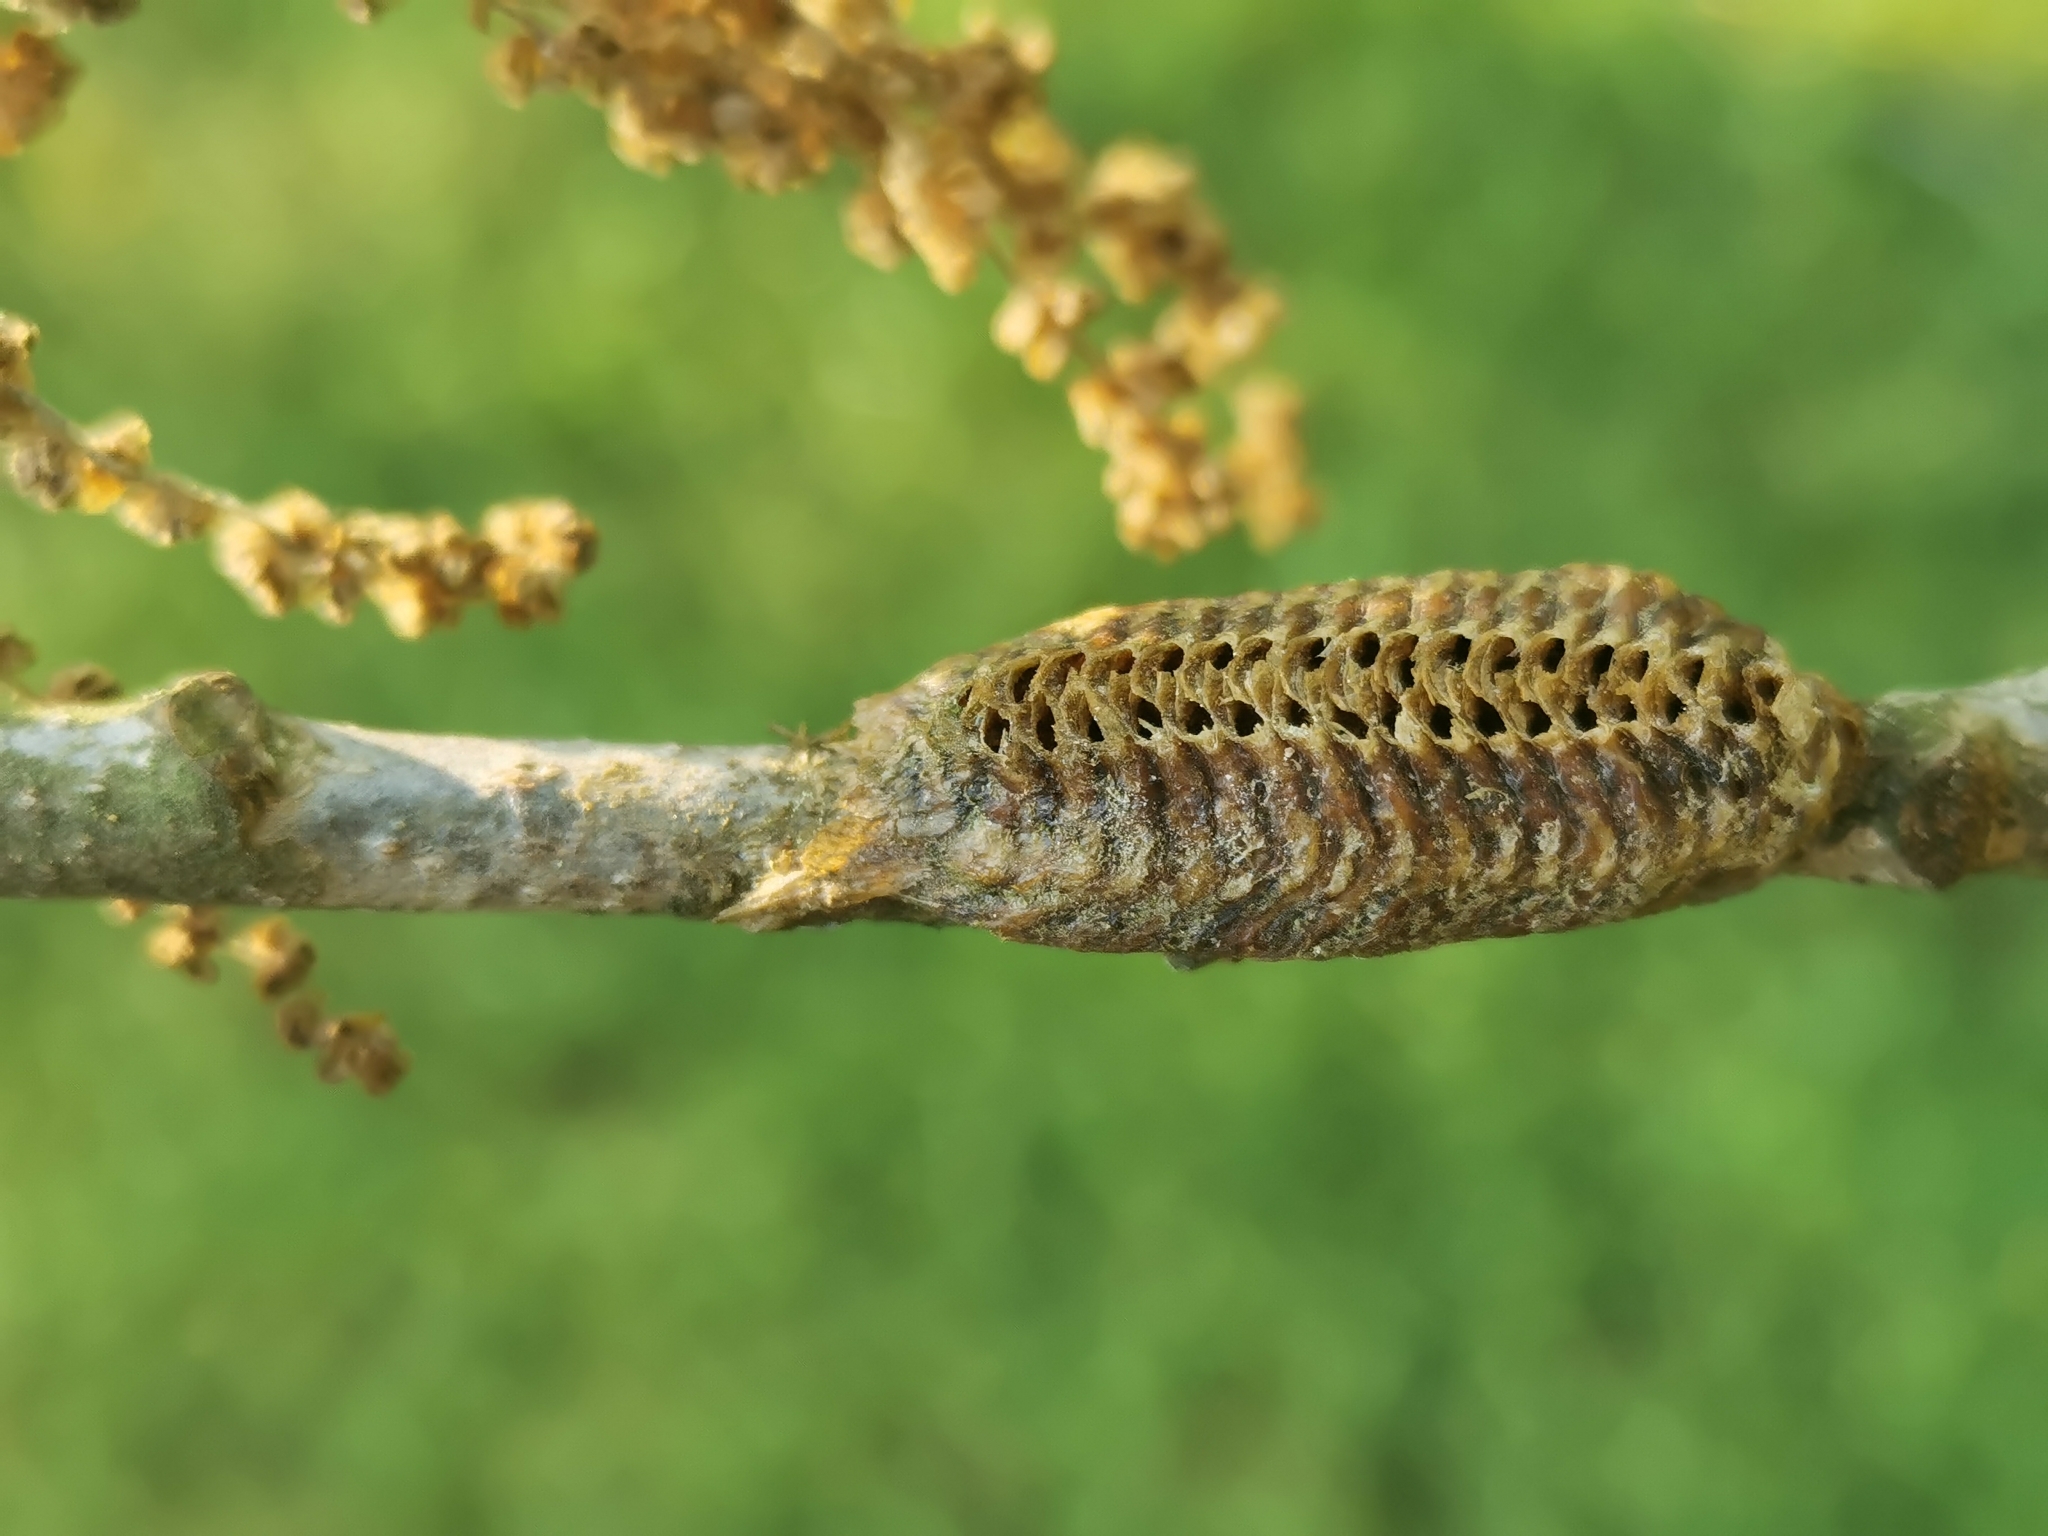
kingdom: Animalia
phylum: Arthropoda
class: Insecta
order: Mantodea
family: Mantidae
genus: Stagmomantis
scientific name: Stagmomantis carolina
